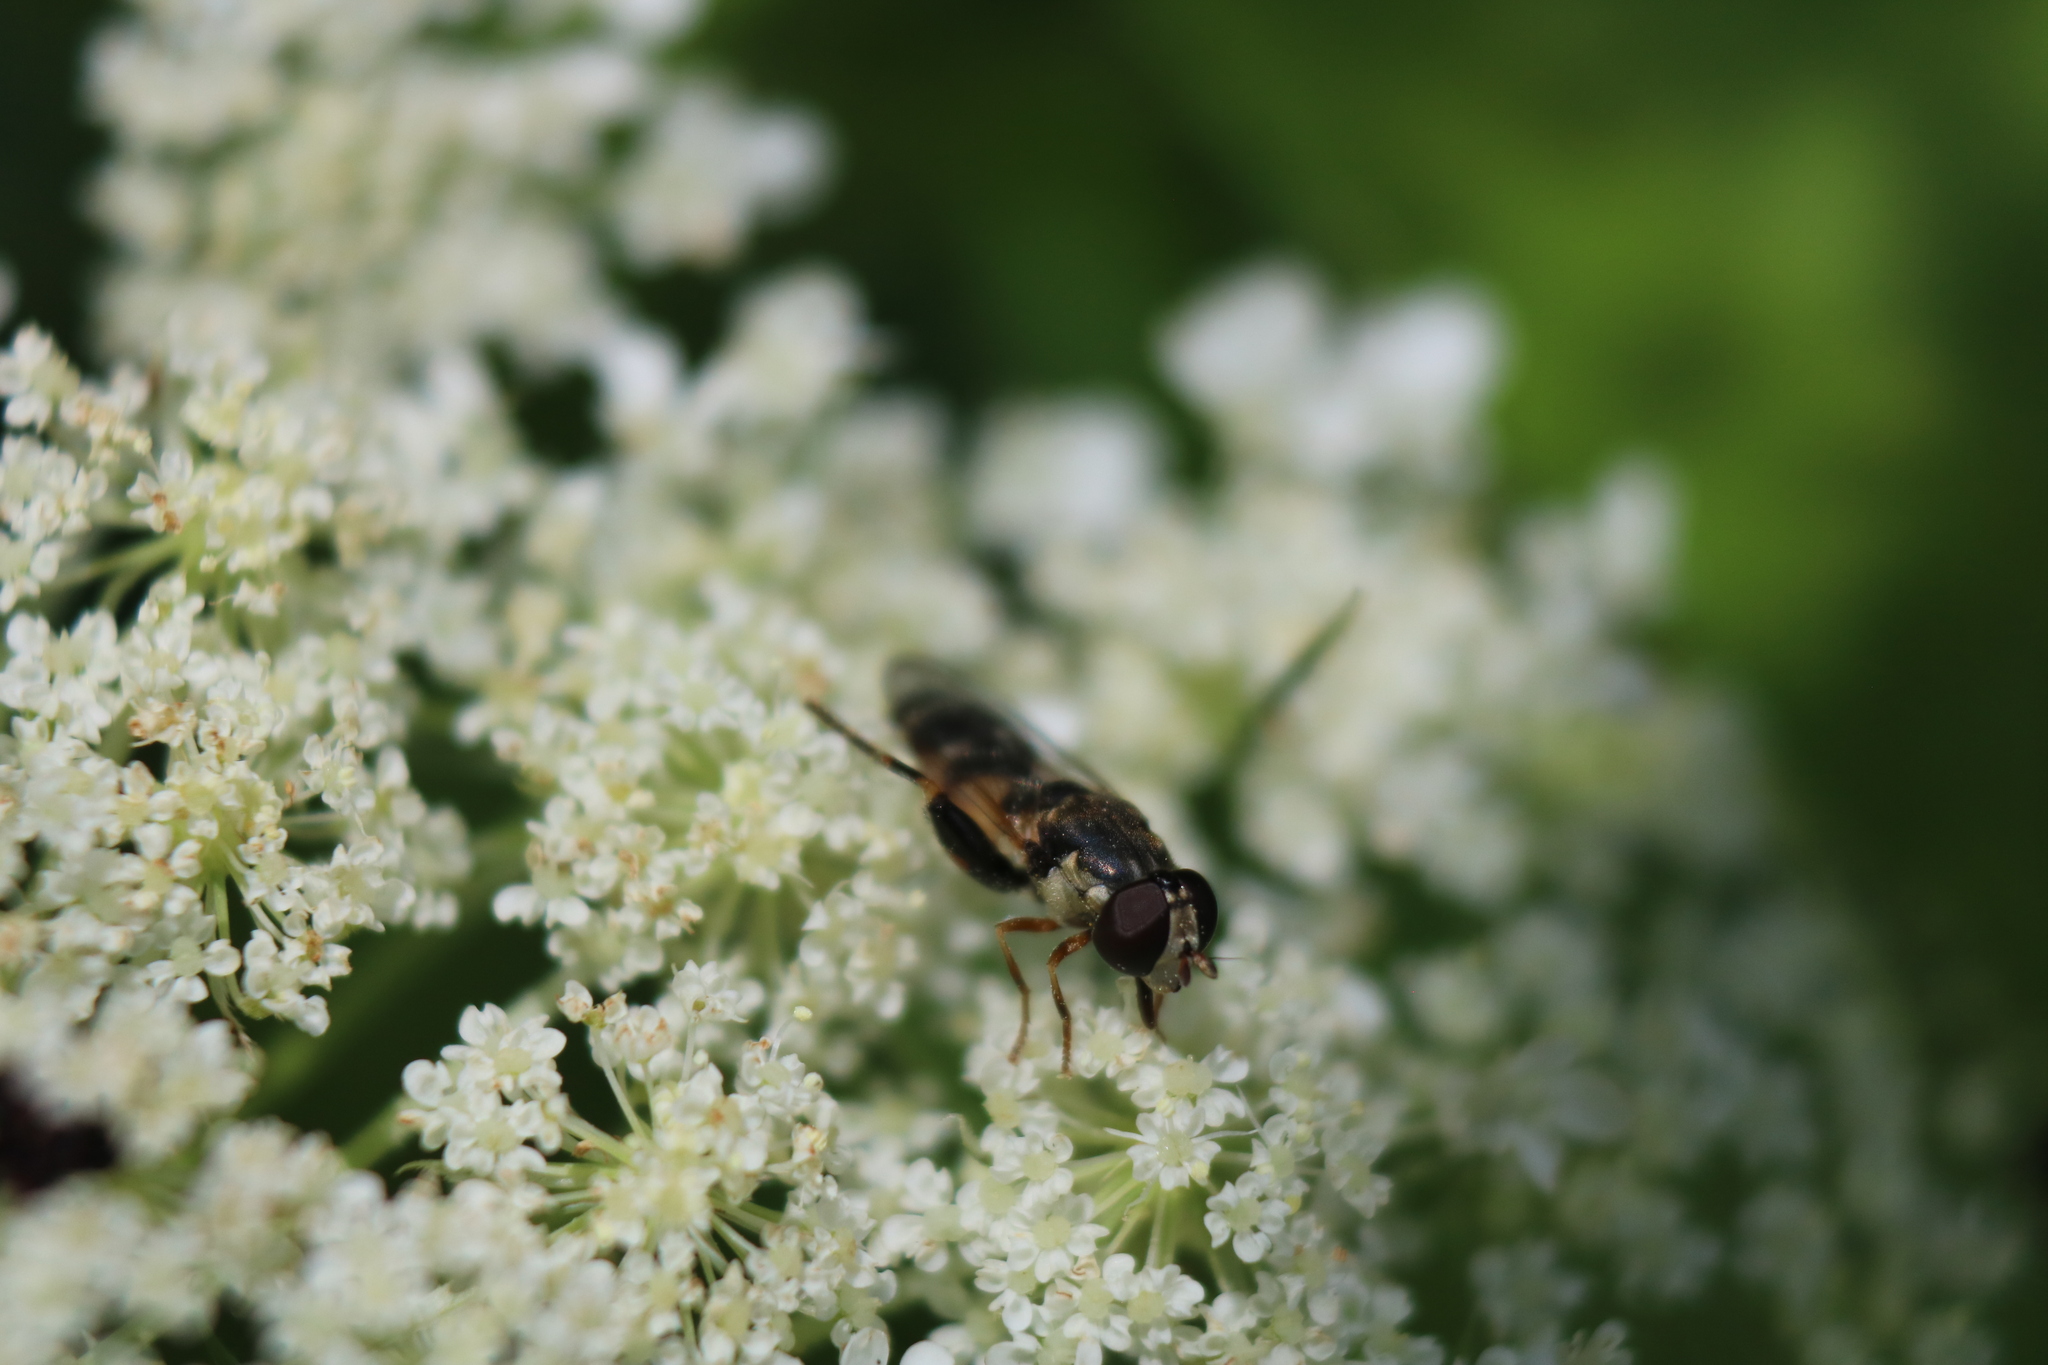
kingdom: Animalia
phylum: Arthropoda
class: Insecta
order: Diptera
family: Syrphidae
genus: Syritta
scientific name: Syritta pipiens
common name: Hover fly
